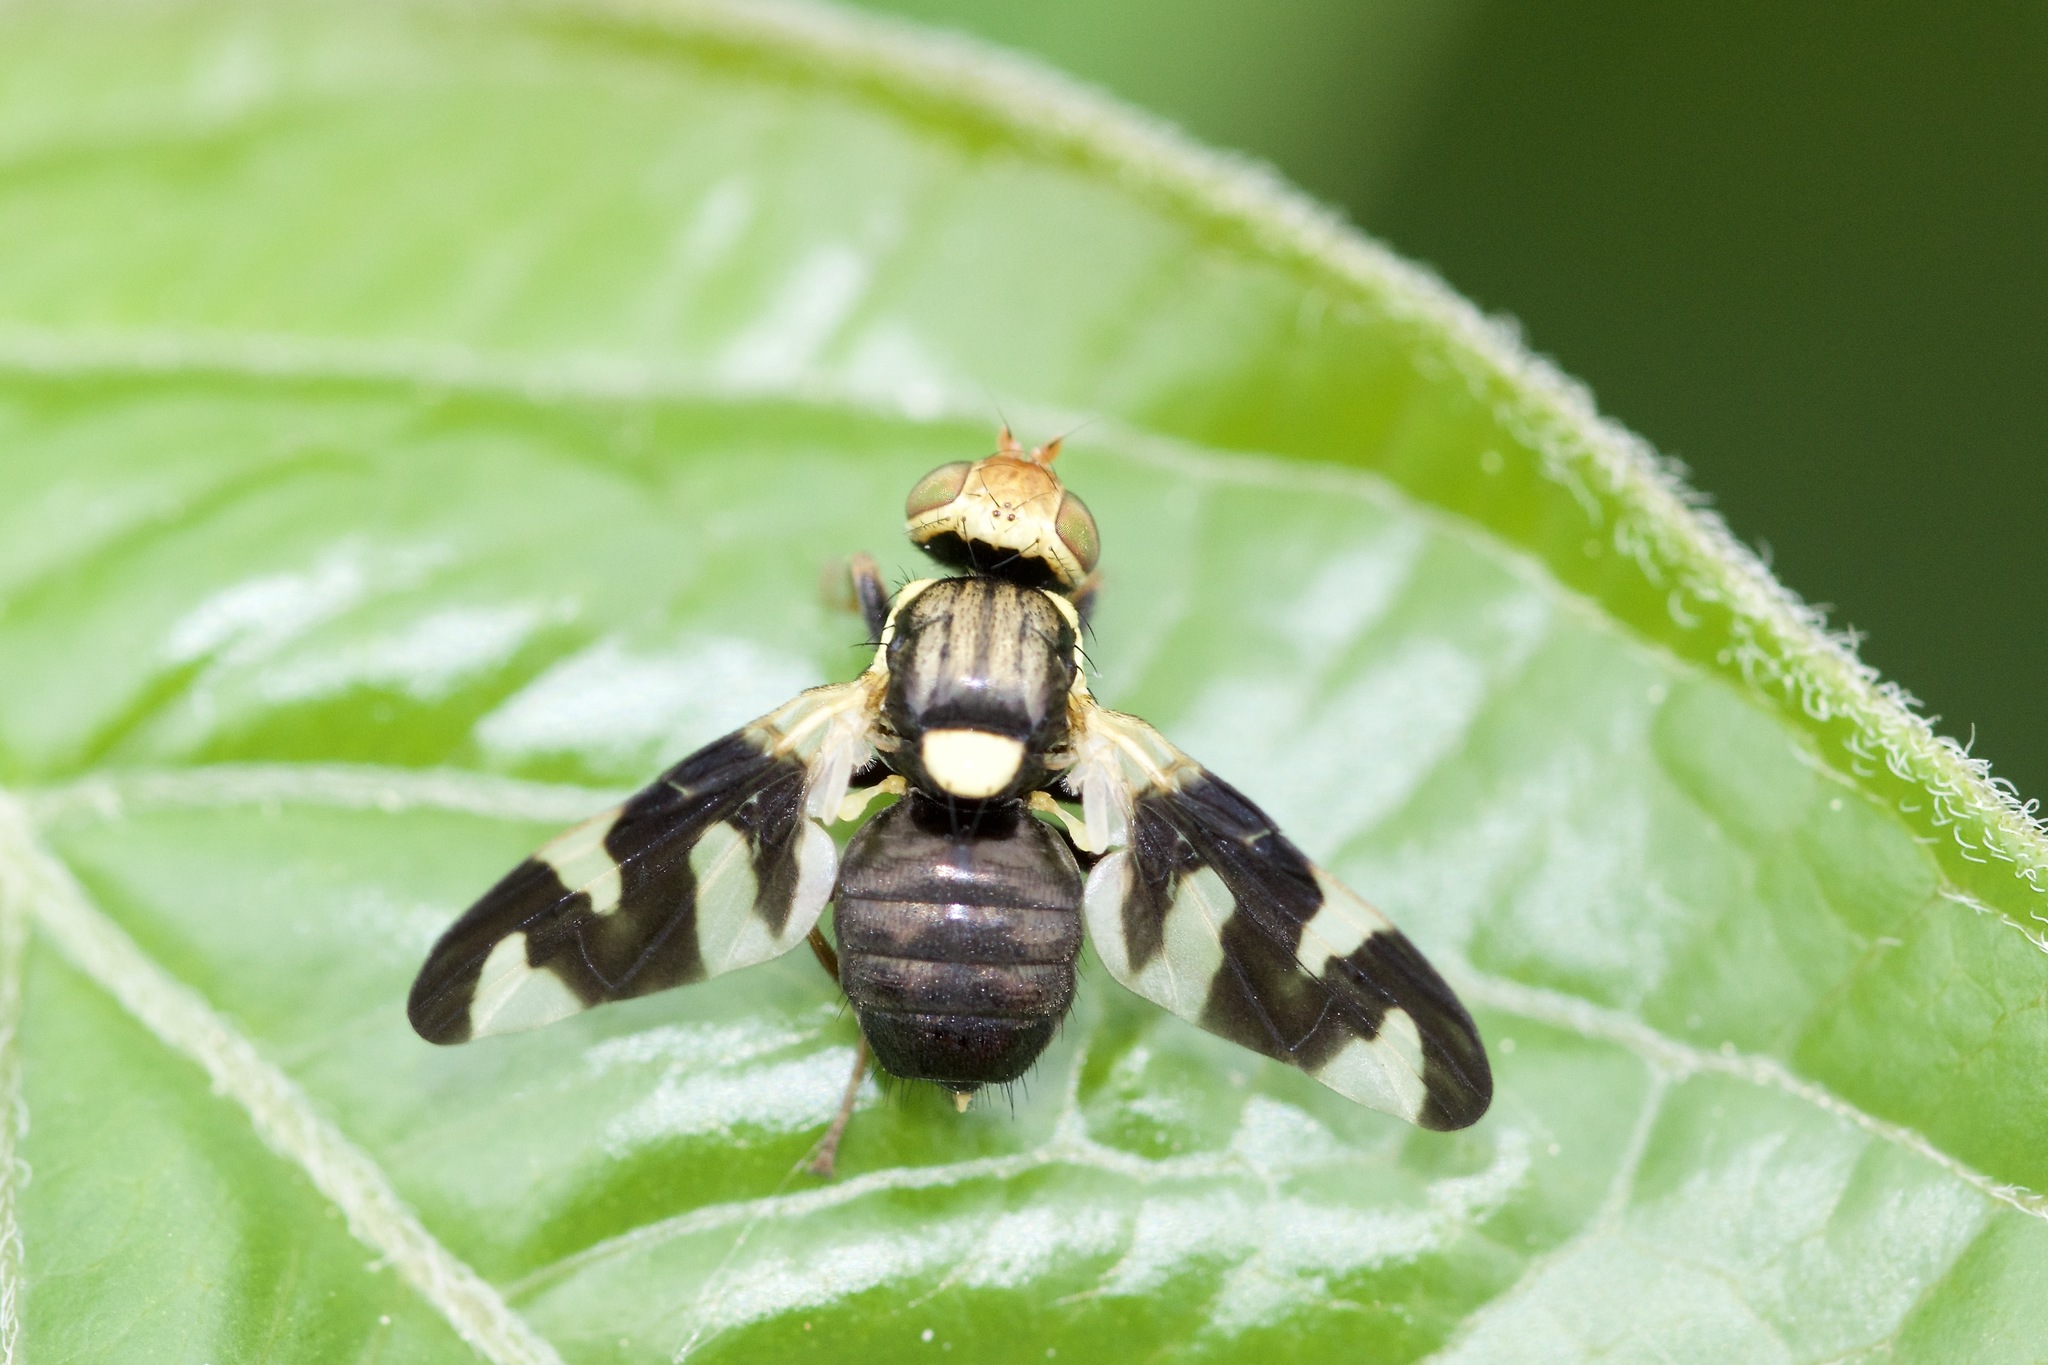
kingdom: Animalia
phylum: Arthropoda
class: Insecta
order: Diptera
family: Tephritidae
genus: Urophora
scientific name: Urophora cardui
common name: Fruit fly
